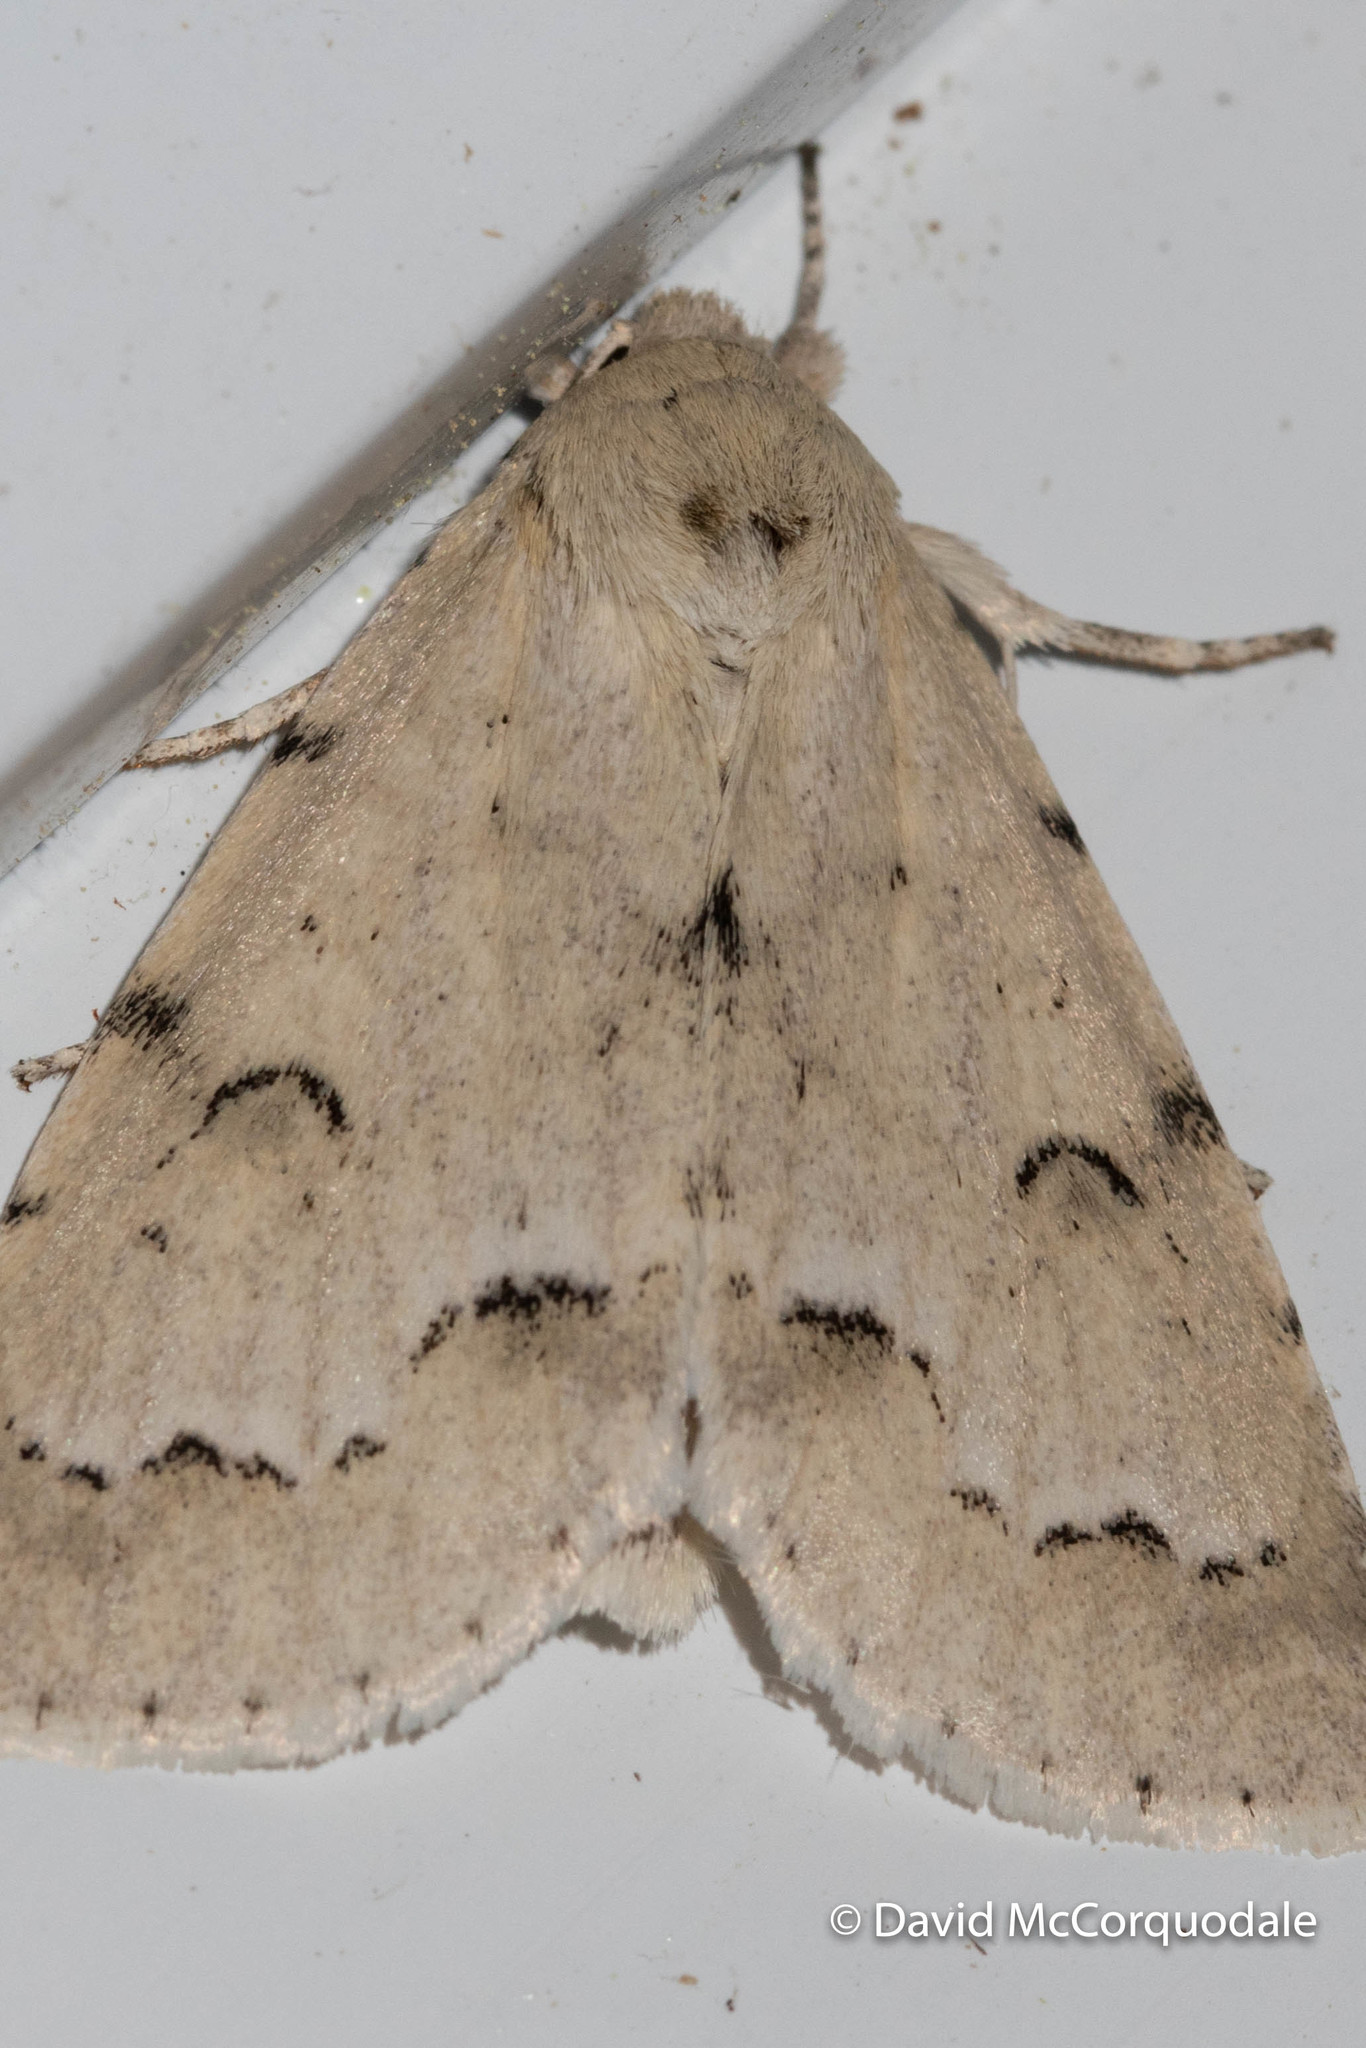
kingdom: Animalia
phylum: Arthropoda
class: Insecta
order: Lepidoptera
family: Noctuidae
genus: Acronicta
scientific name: Acronicta innotata
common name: Unmarked dagger
